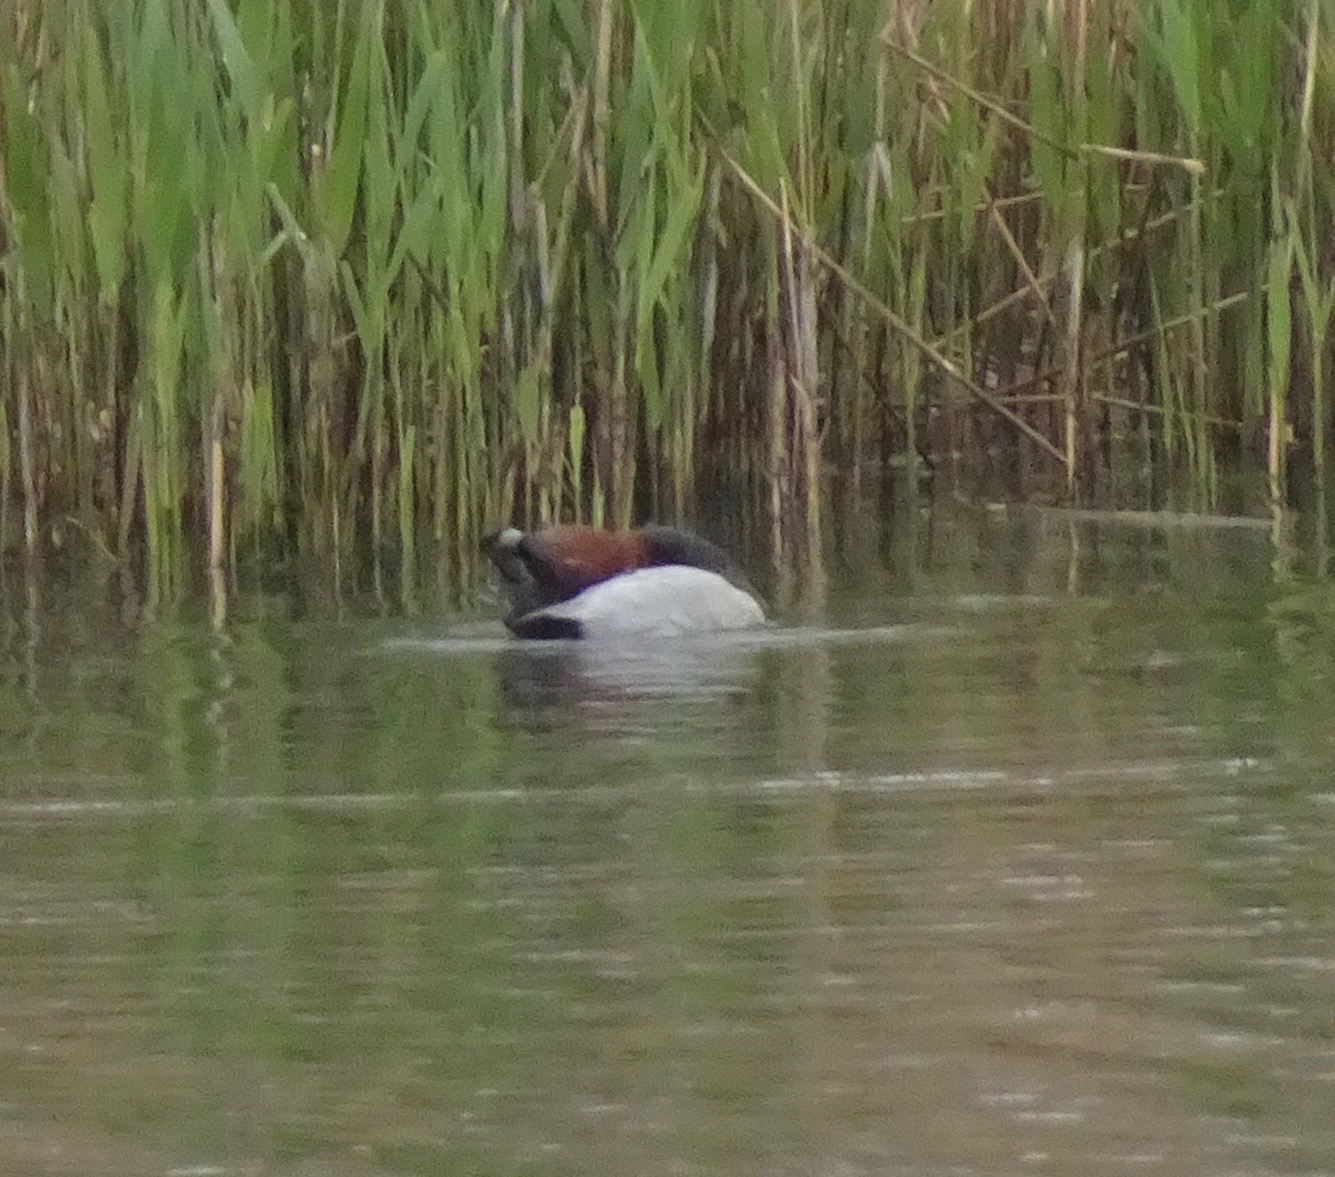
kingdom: Animalia
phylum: Chordata
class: Aves
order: Anseriformes
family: Anatidae
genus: Aythya
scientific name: Aythya ferina
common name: Common pochard
